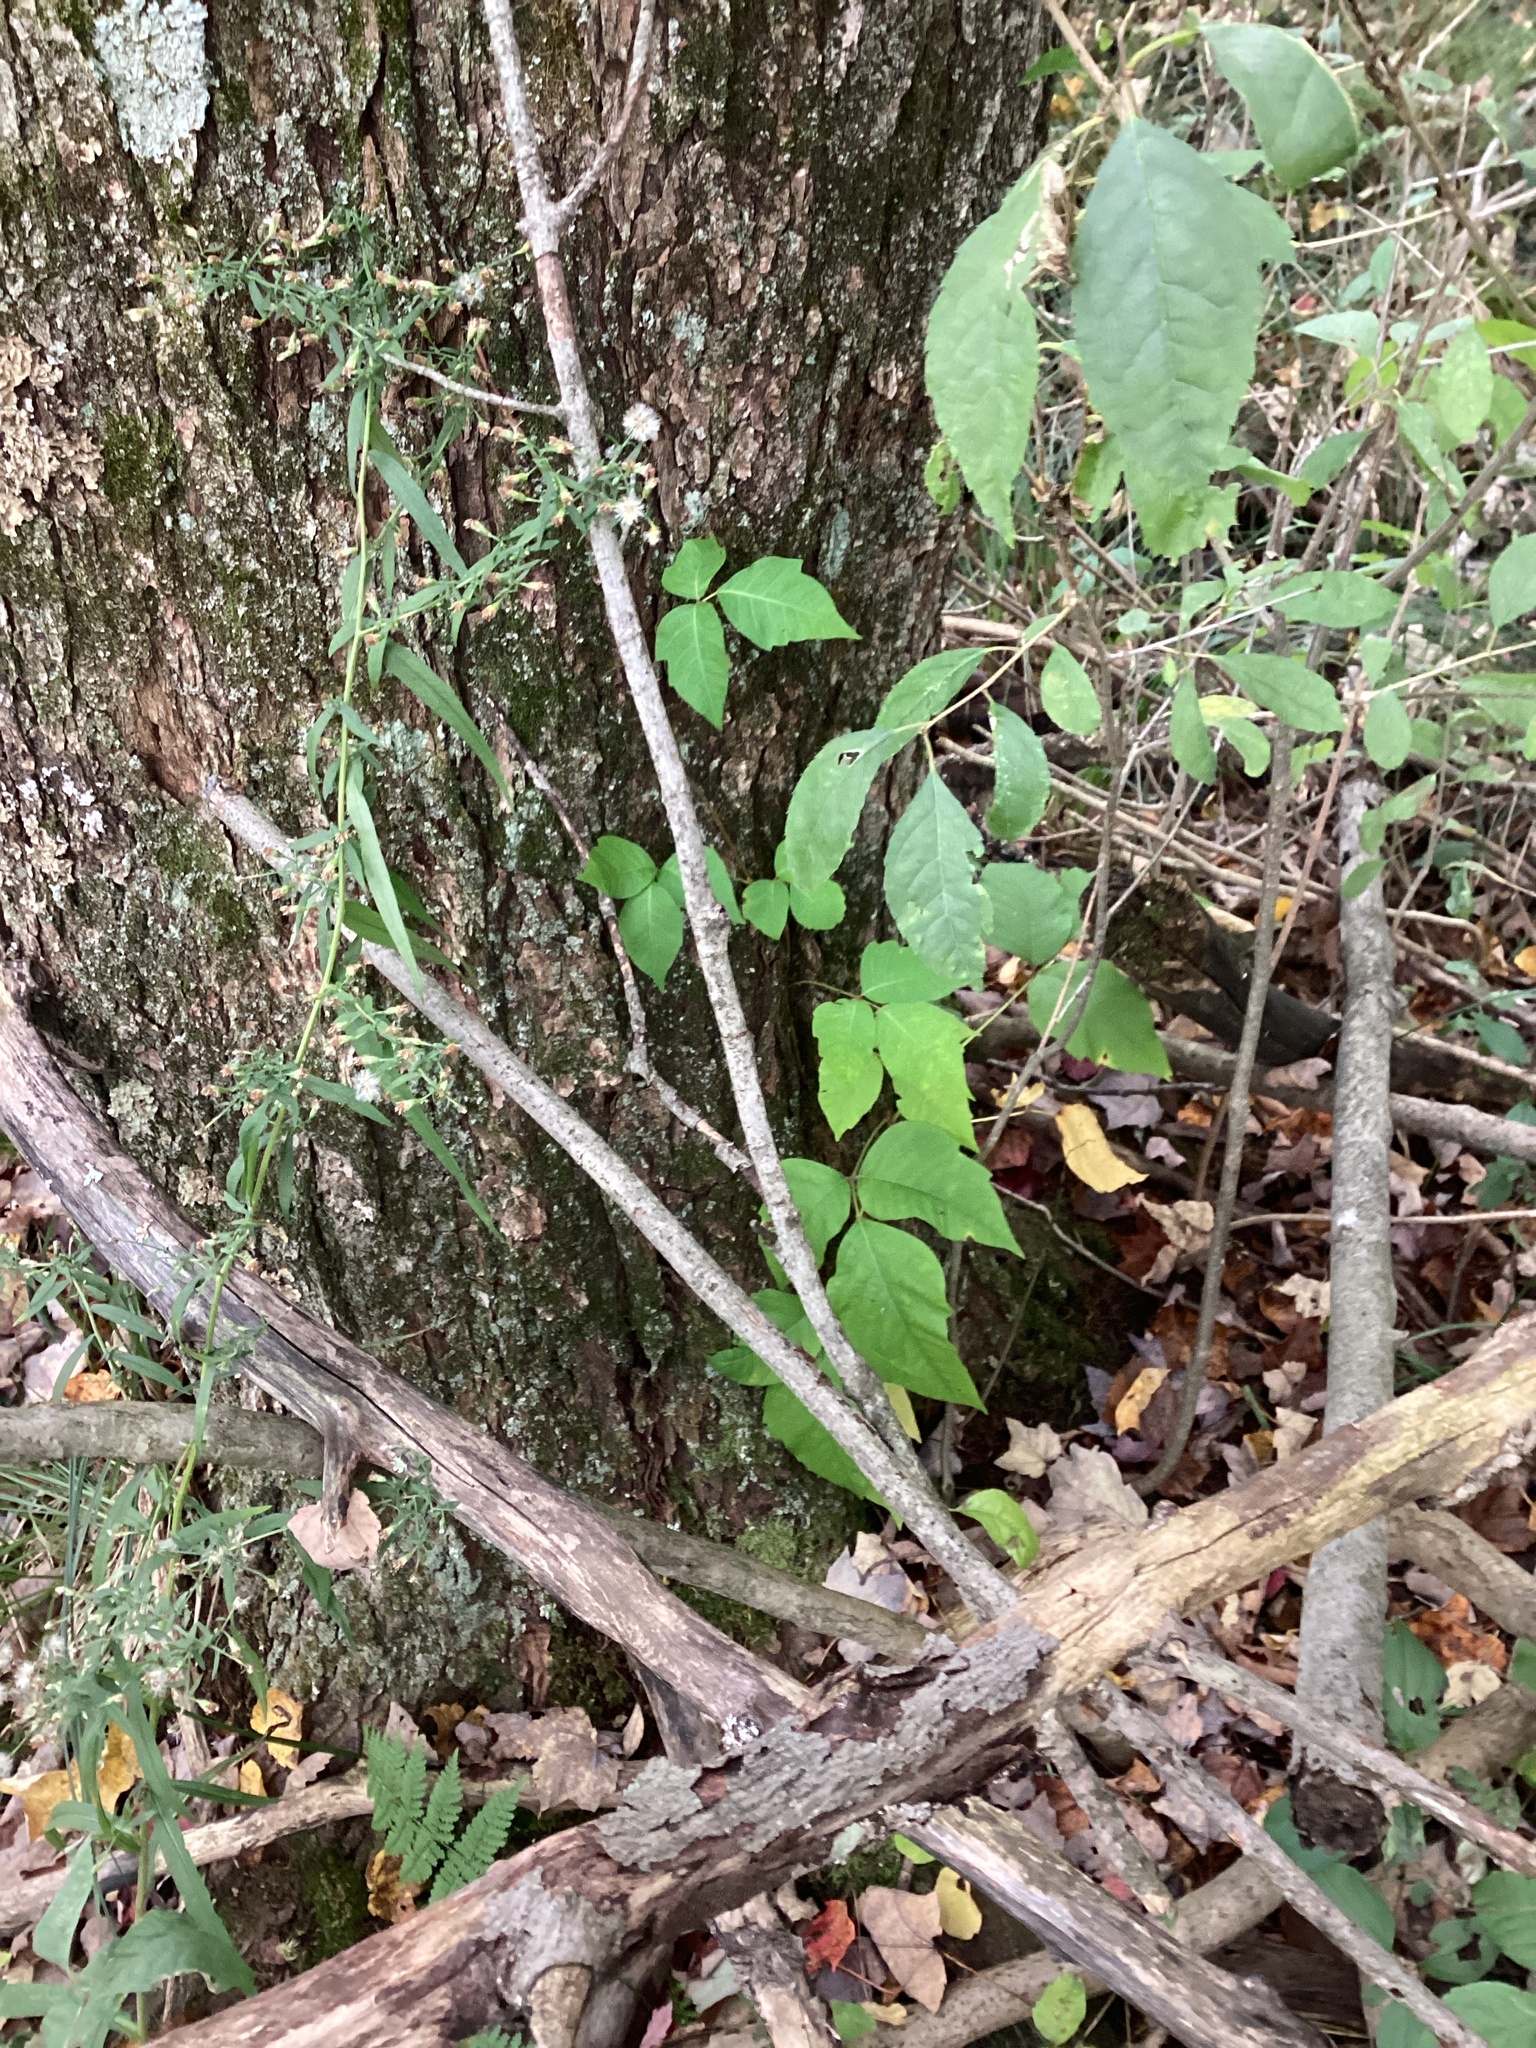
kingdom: Plantae
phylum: Tracheophyta
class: Magnoliopsida
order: Sapindales
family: Anacardiaceae
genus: Toxicodendron
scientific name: Toxicodendron radicans
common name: Poison ivy
